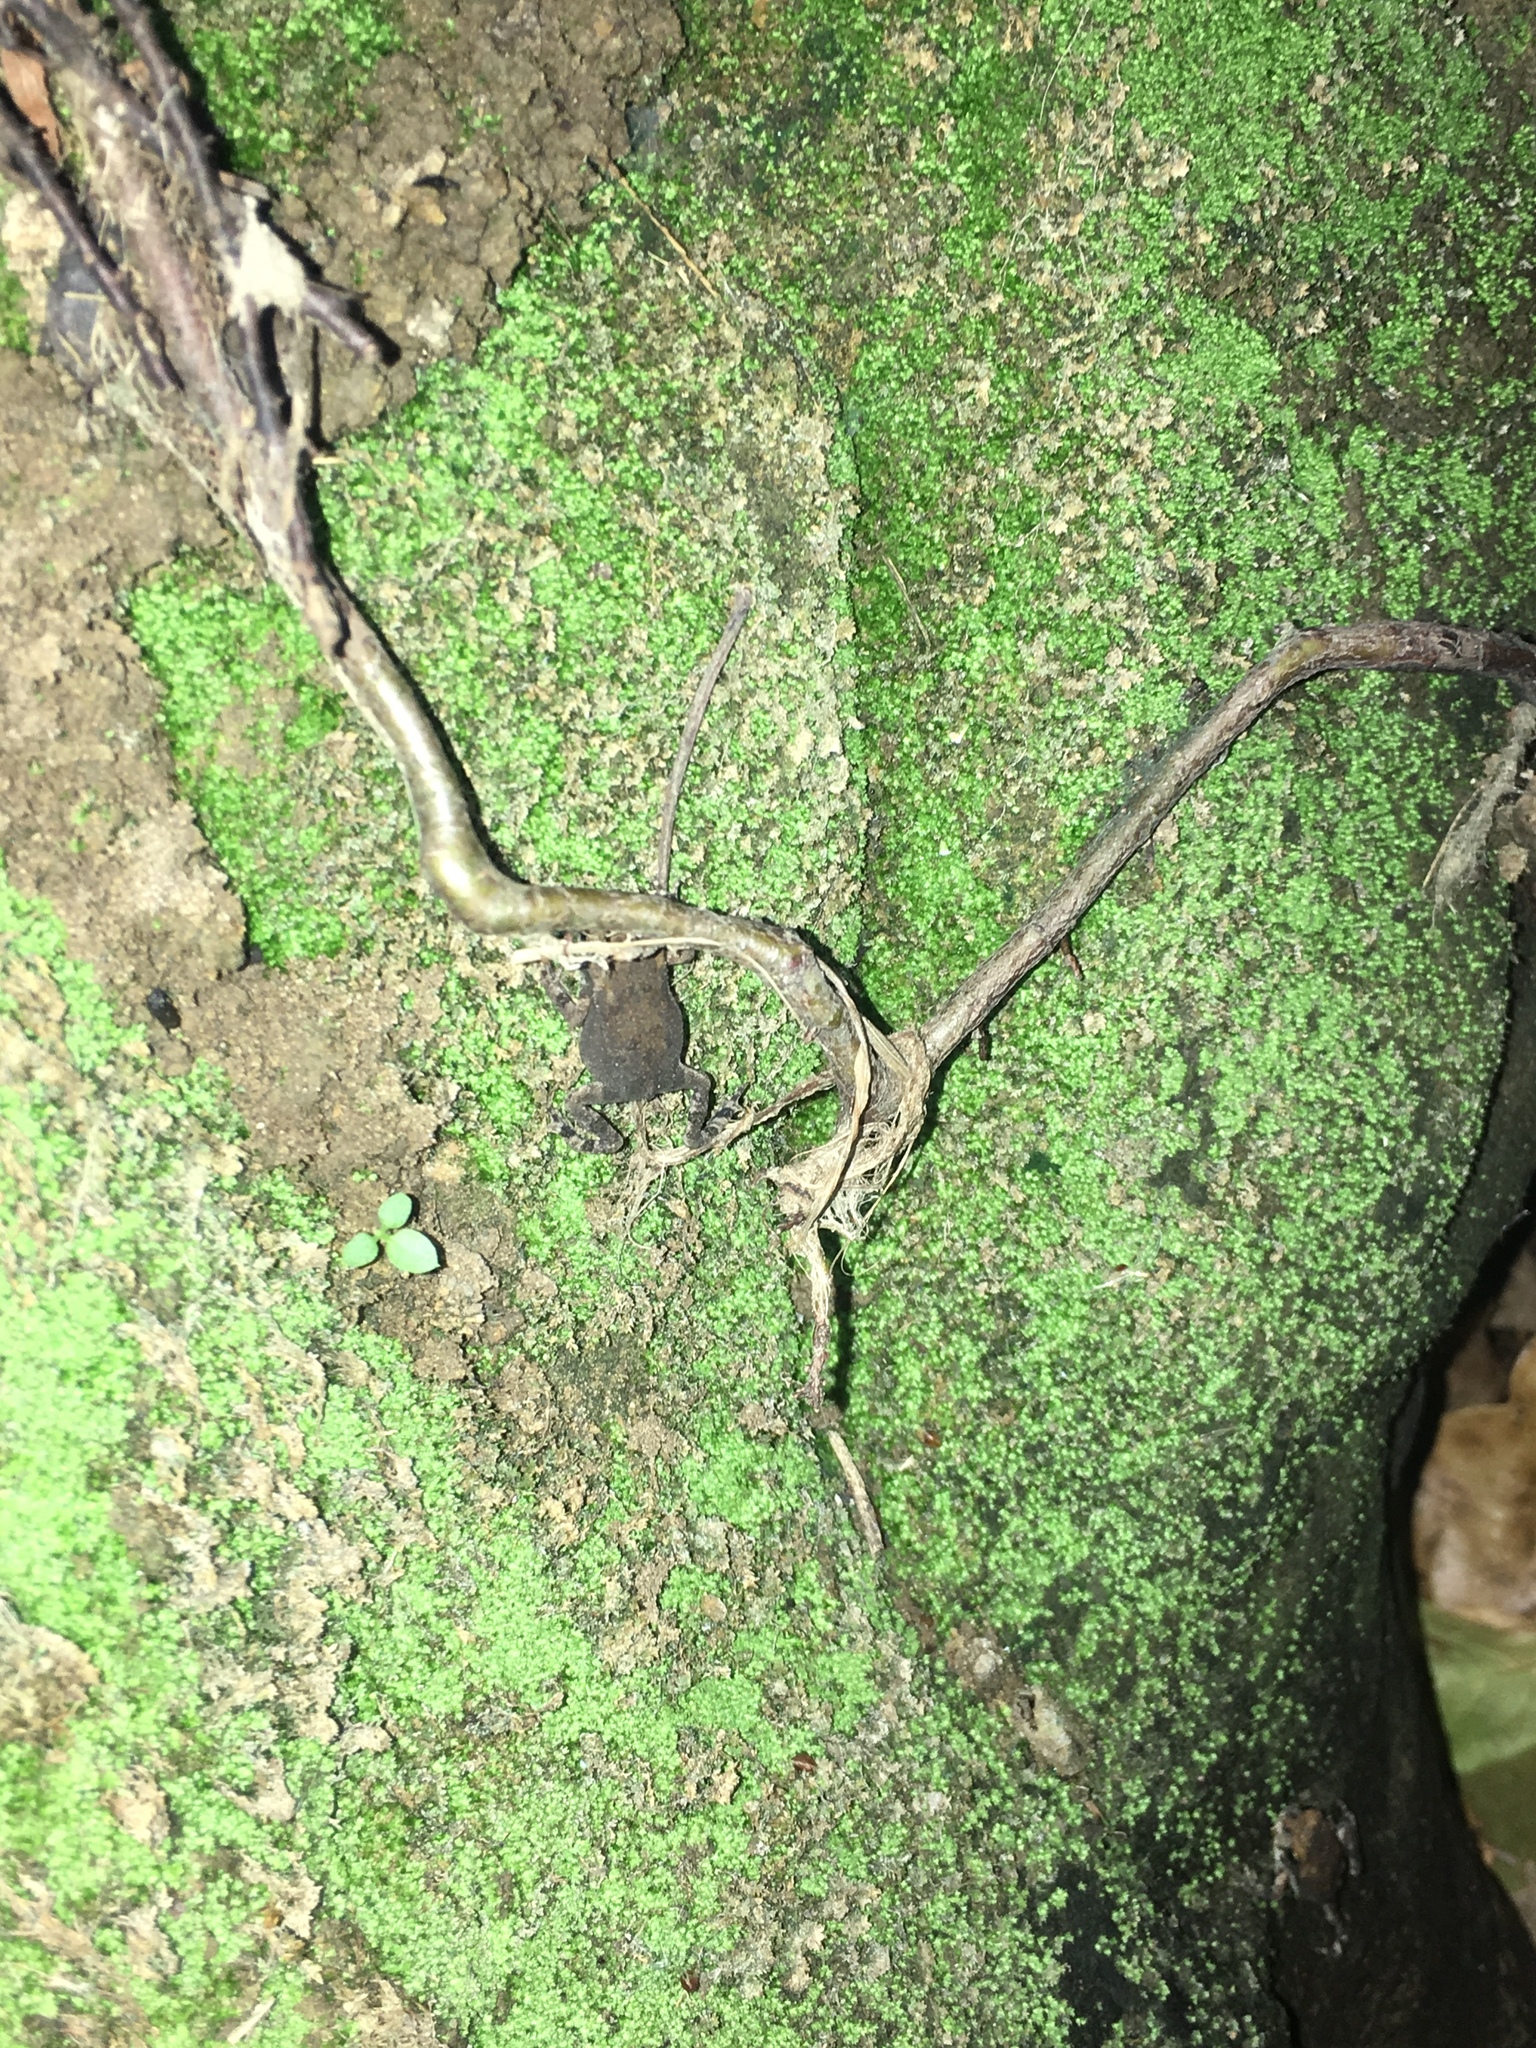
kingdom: Animalia
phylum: Chordata
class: Amphibia
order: Anura
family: Bufonidae
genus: Incilius
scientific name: Incilius nebulifer
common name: Gulf coast toad
